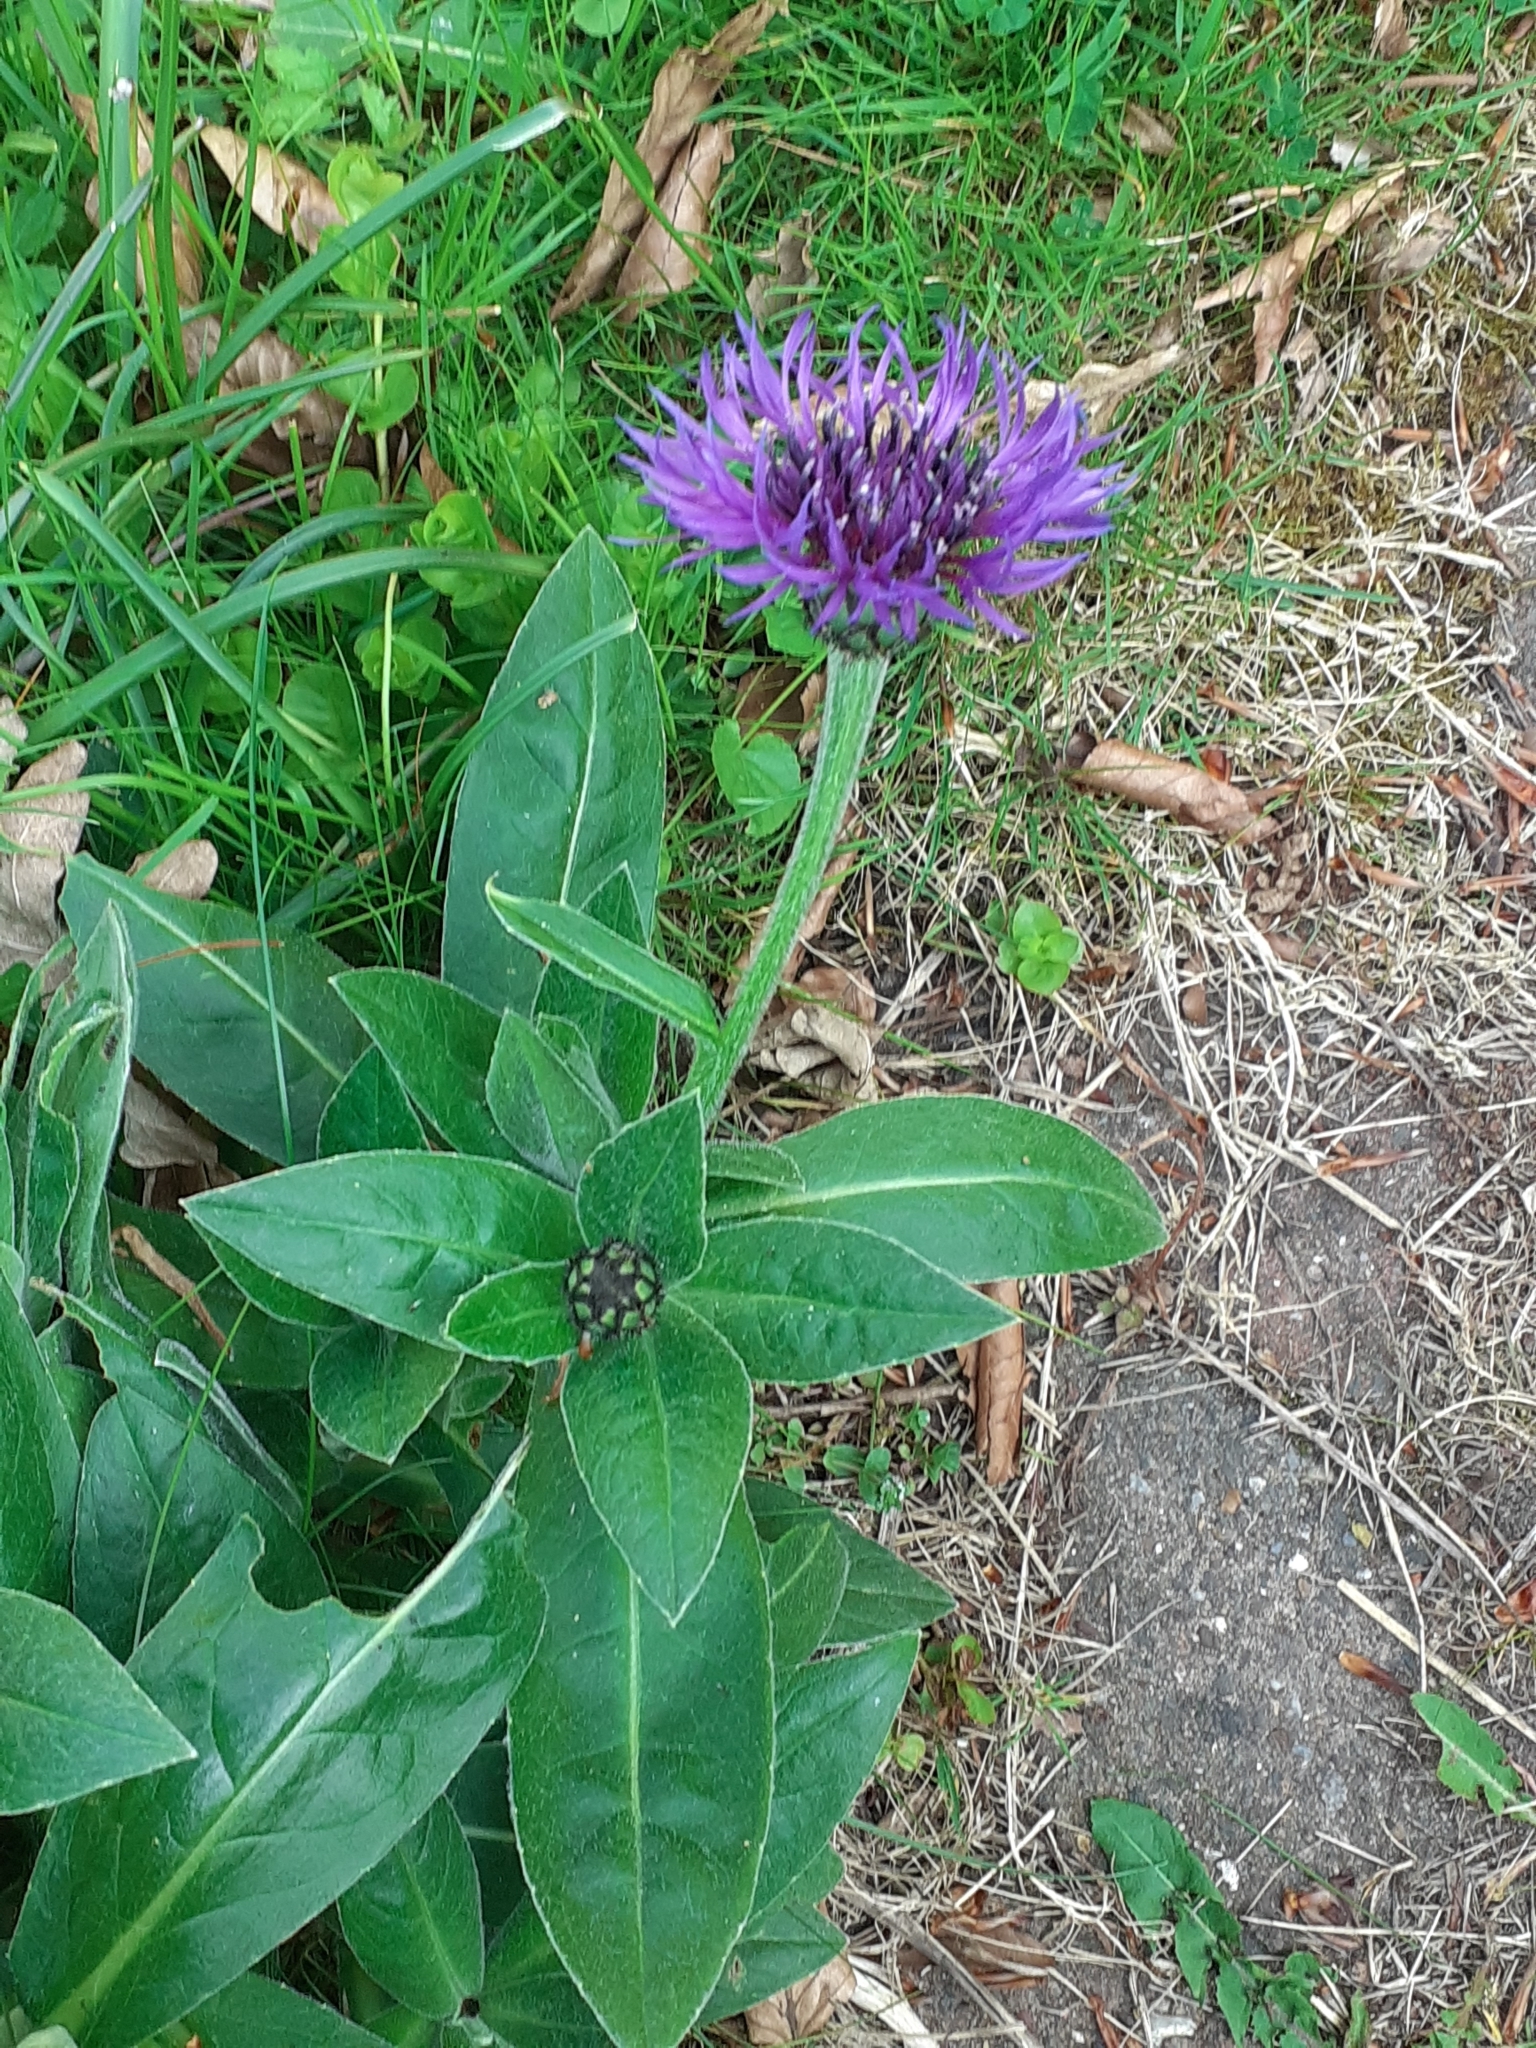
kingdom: Plantae
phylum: Tracheophyta
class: Magnoliopsida
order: Asterales
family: Asteraceae
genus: Centaurea
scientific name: Centaurea montana
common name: Perennial cornflower
